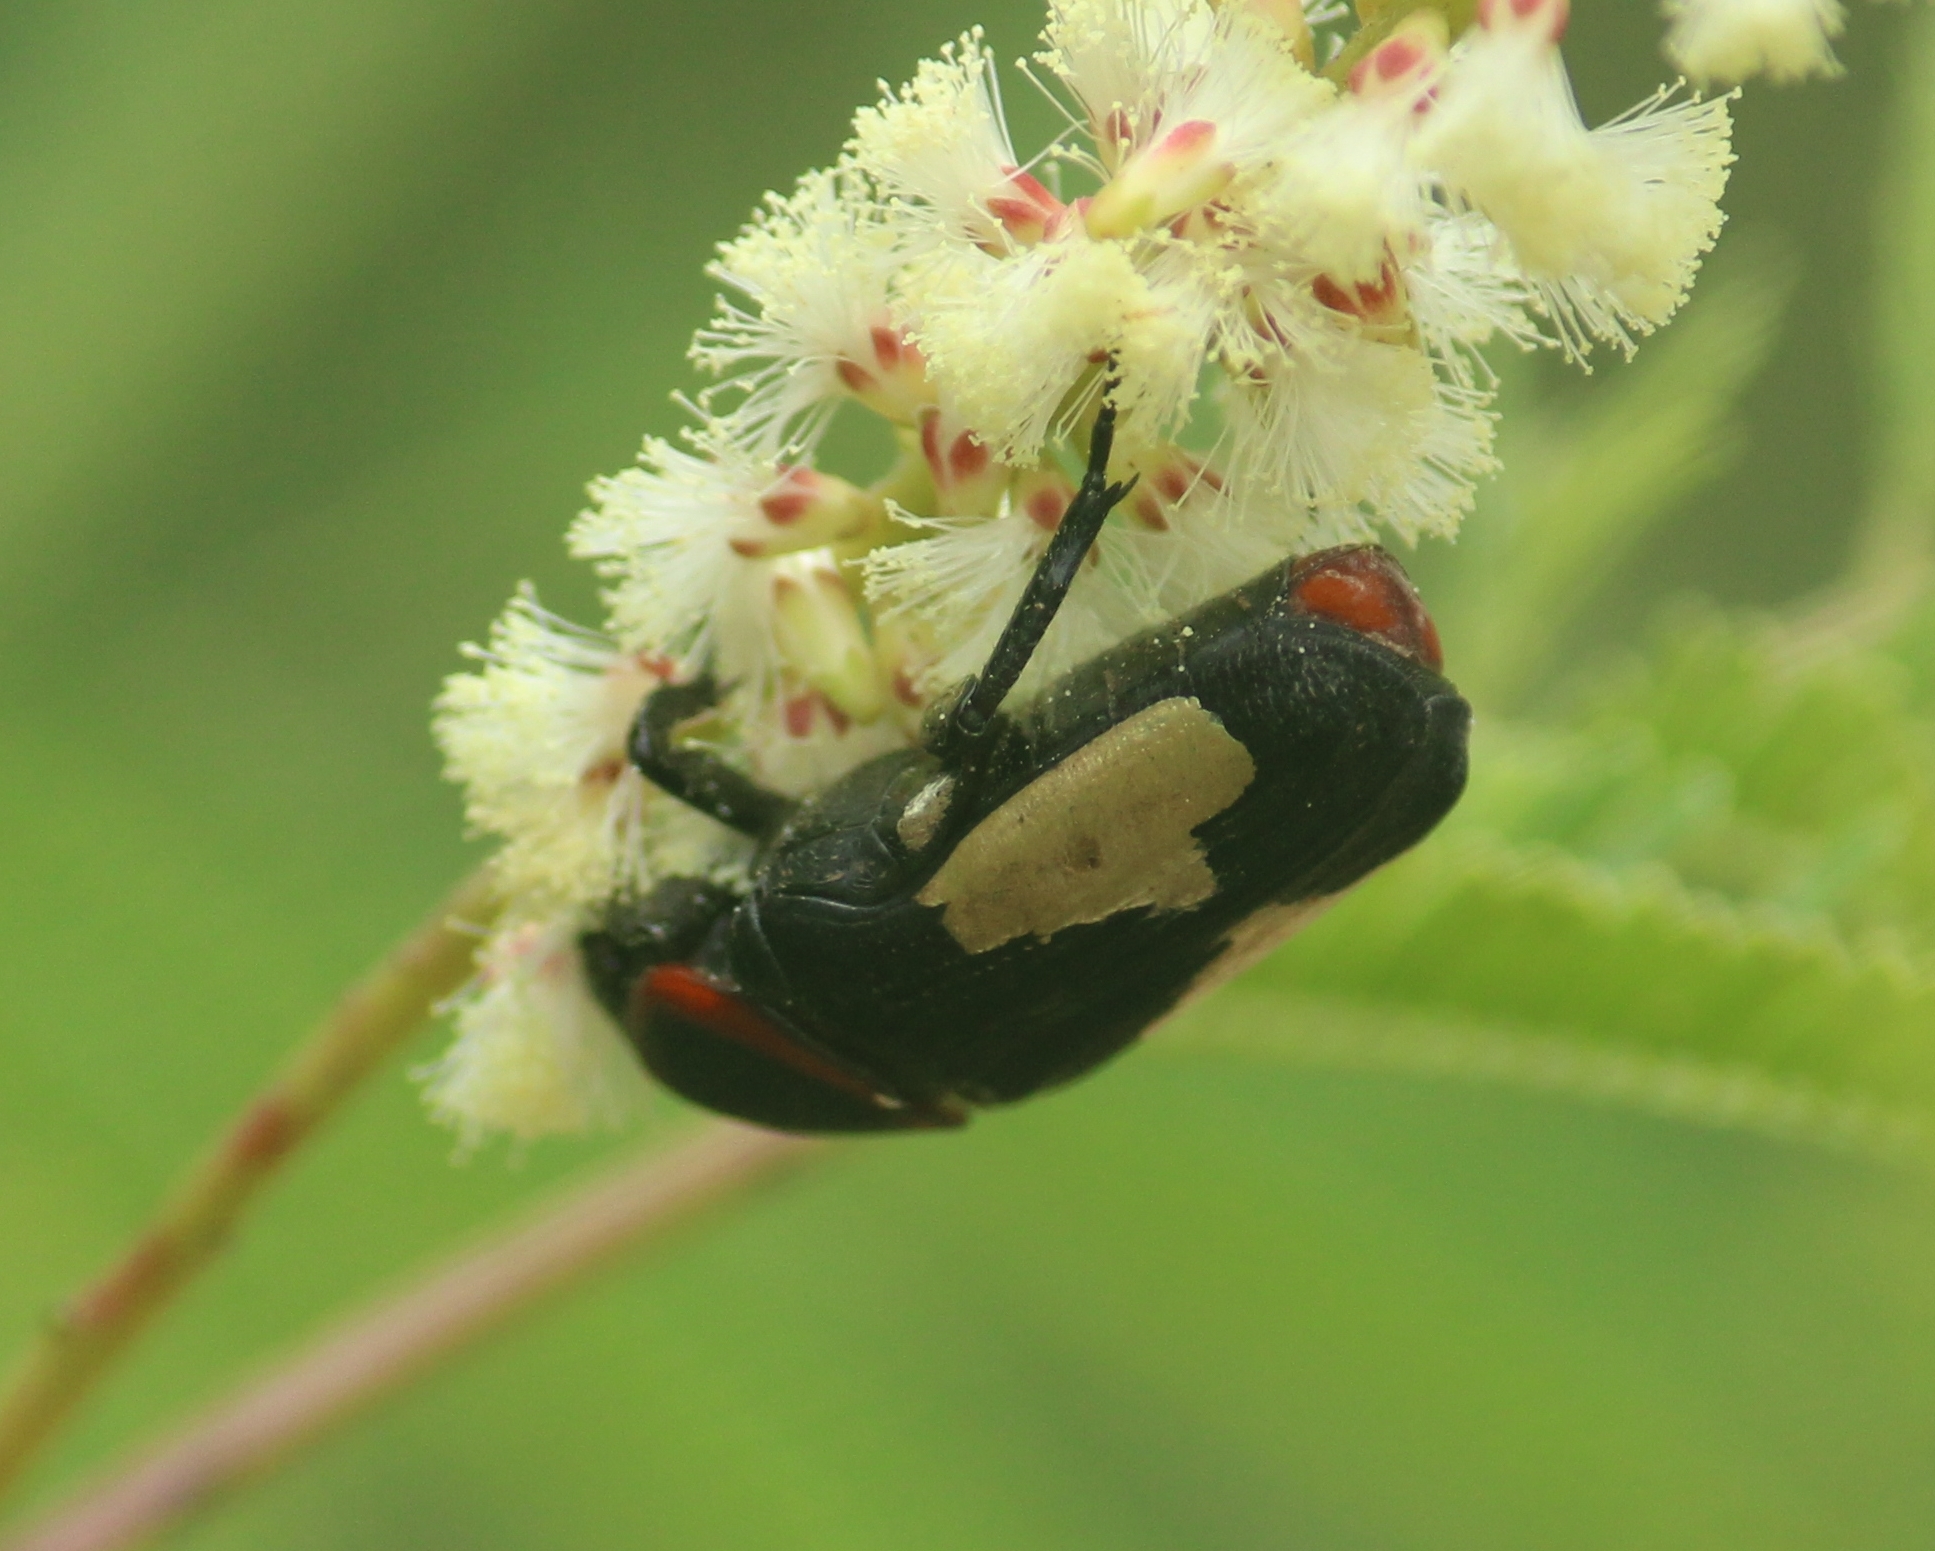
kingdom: Animalia
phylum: Arthropoda
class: Insecta
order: Coleoptera
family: Scarabaeidae
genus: Glycyphana
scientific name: Glycyphana horsfieldi
